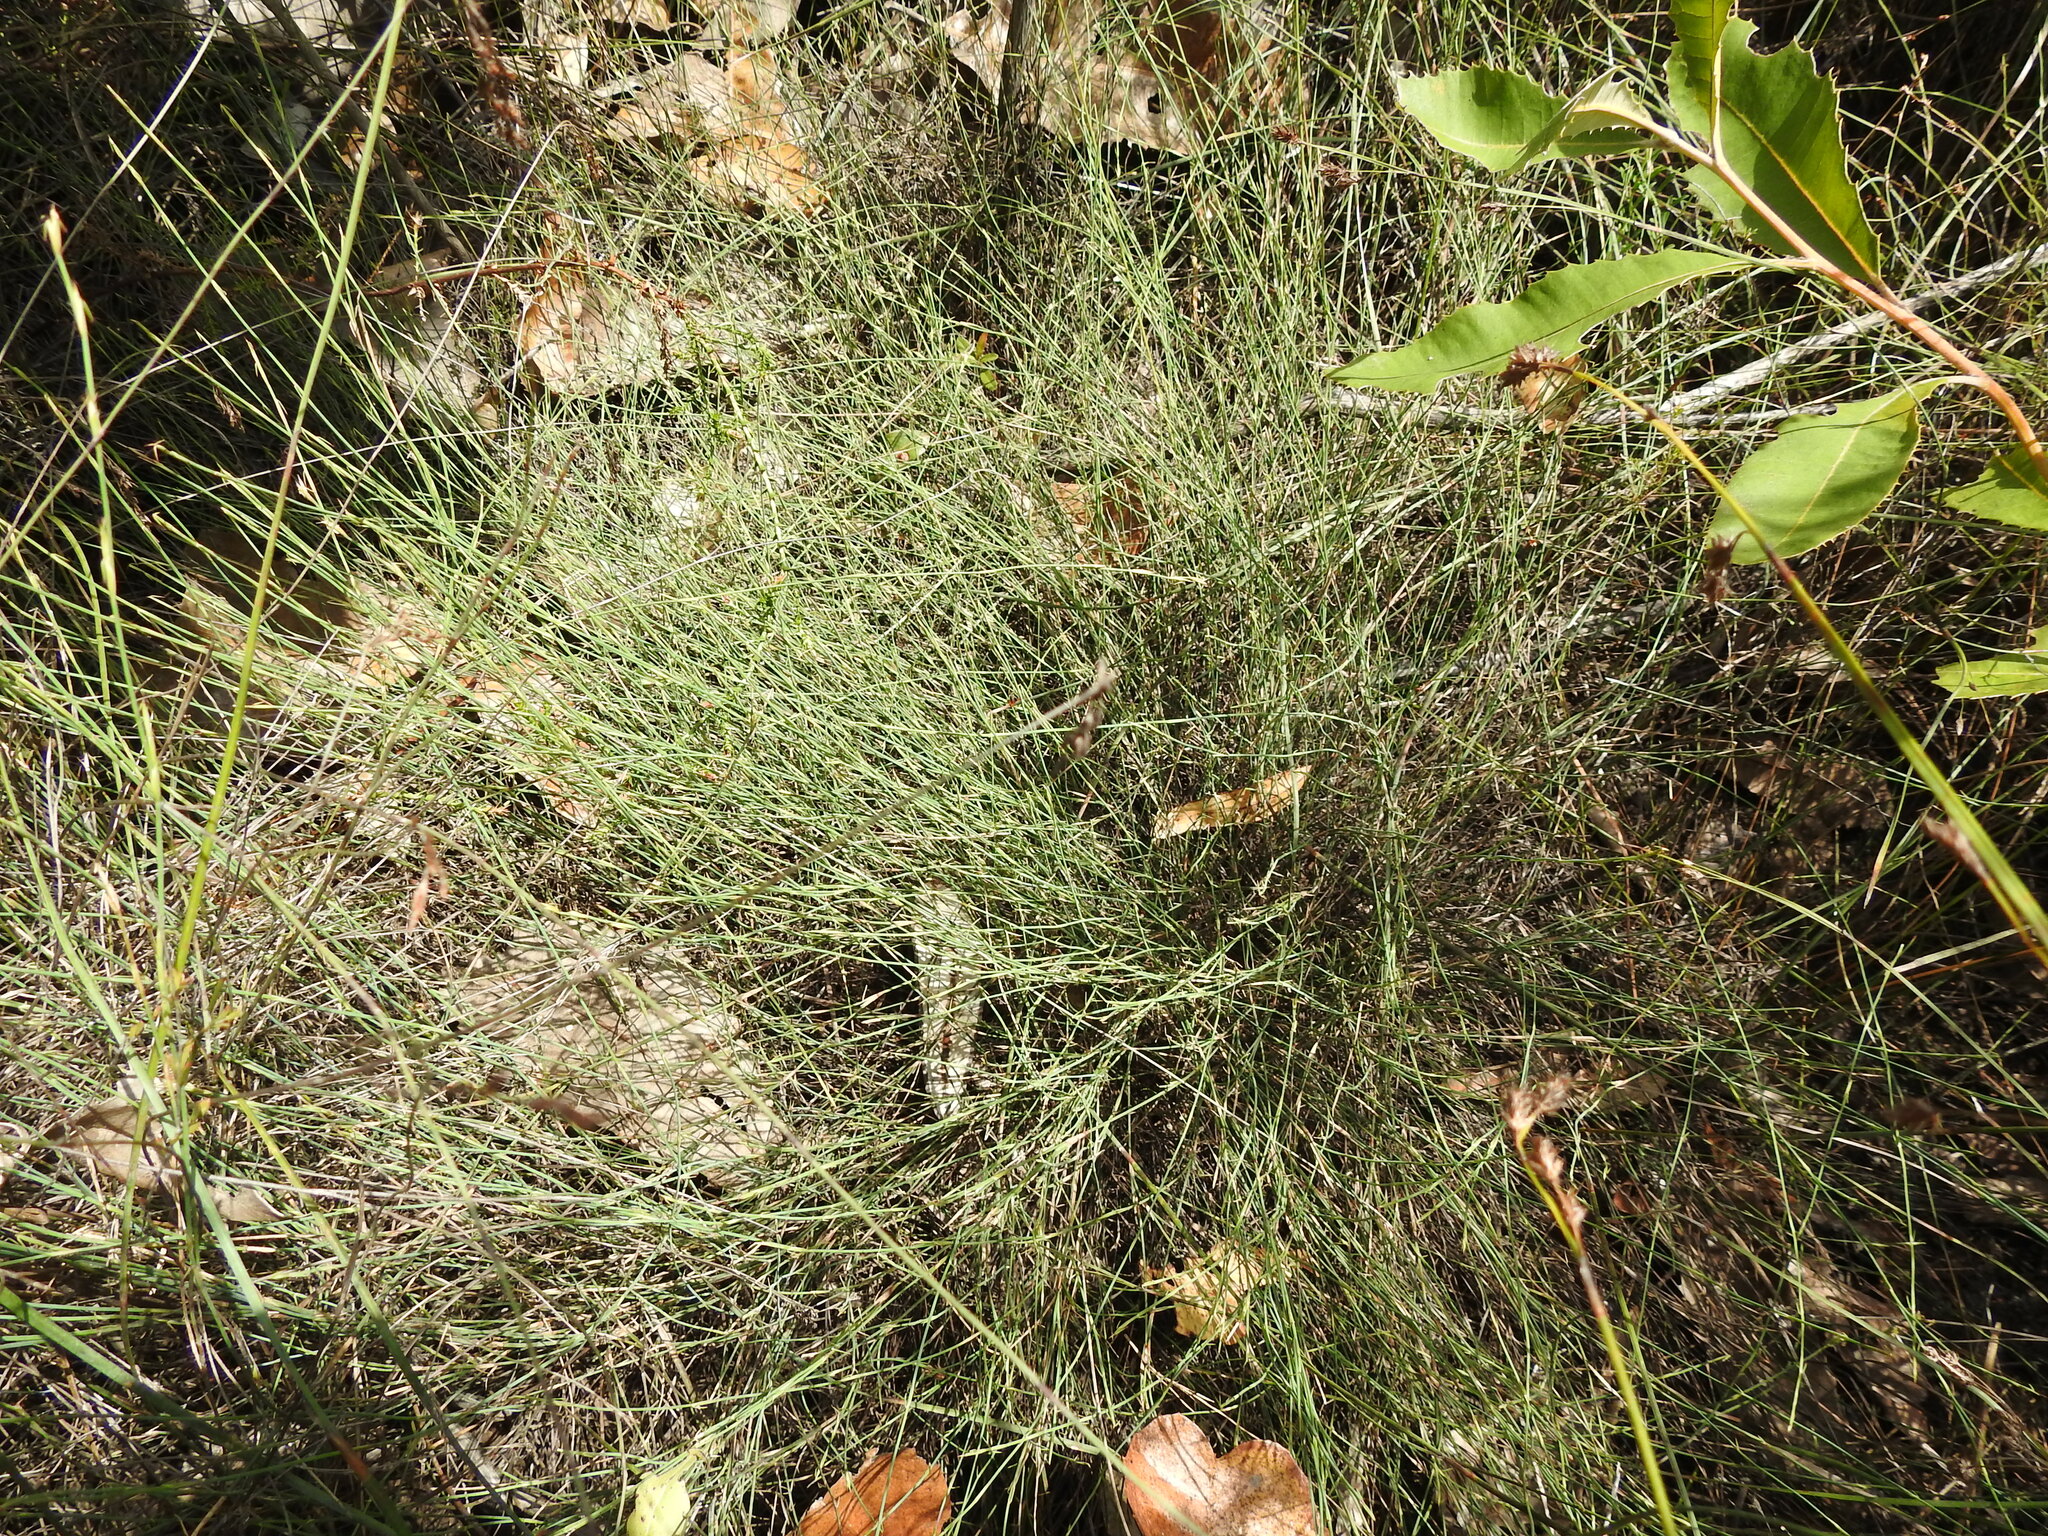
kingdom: Plantae
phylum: Tracheophyta
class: Liliopsida
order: Poales
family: Restionaceae
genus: Empodisma
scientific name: Empodisma minus
